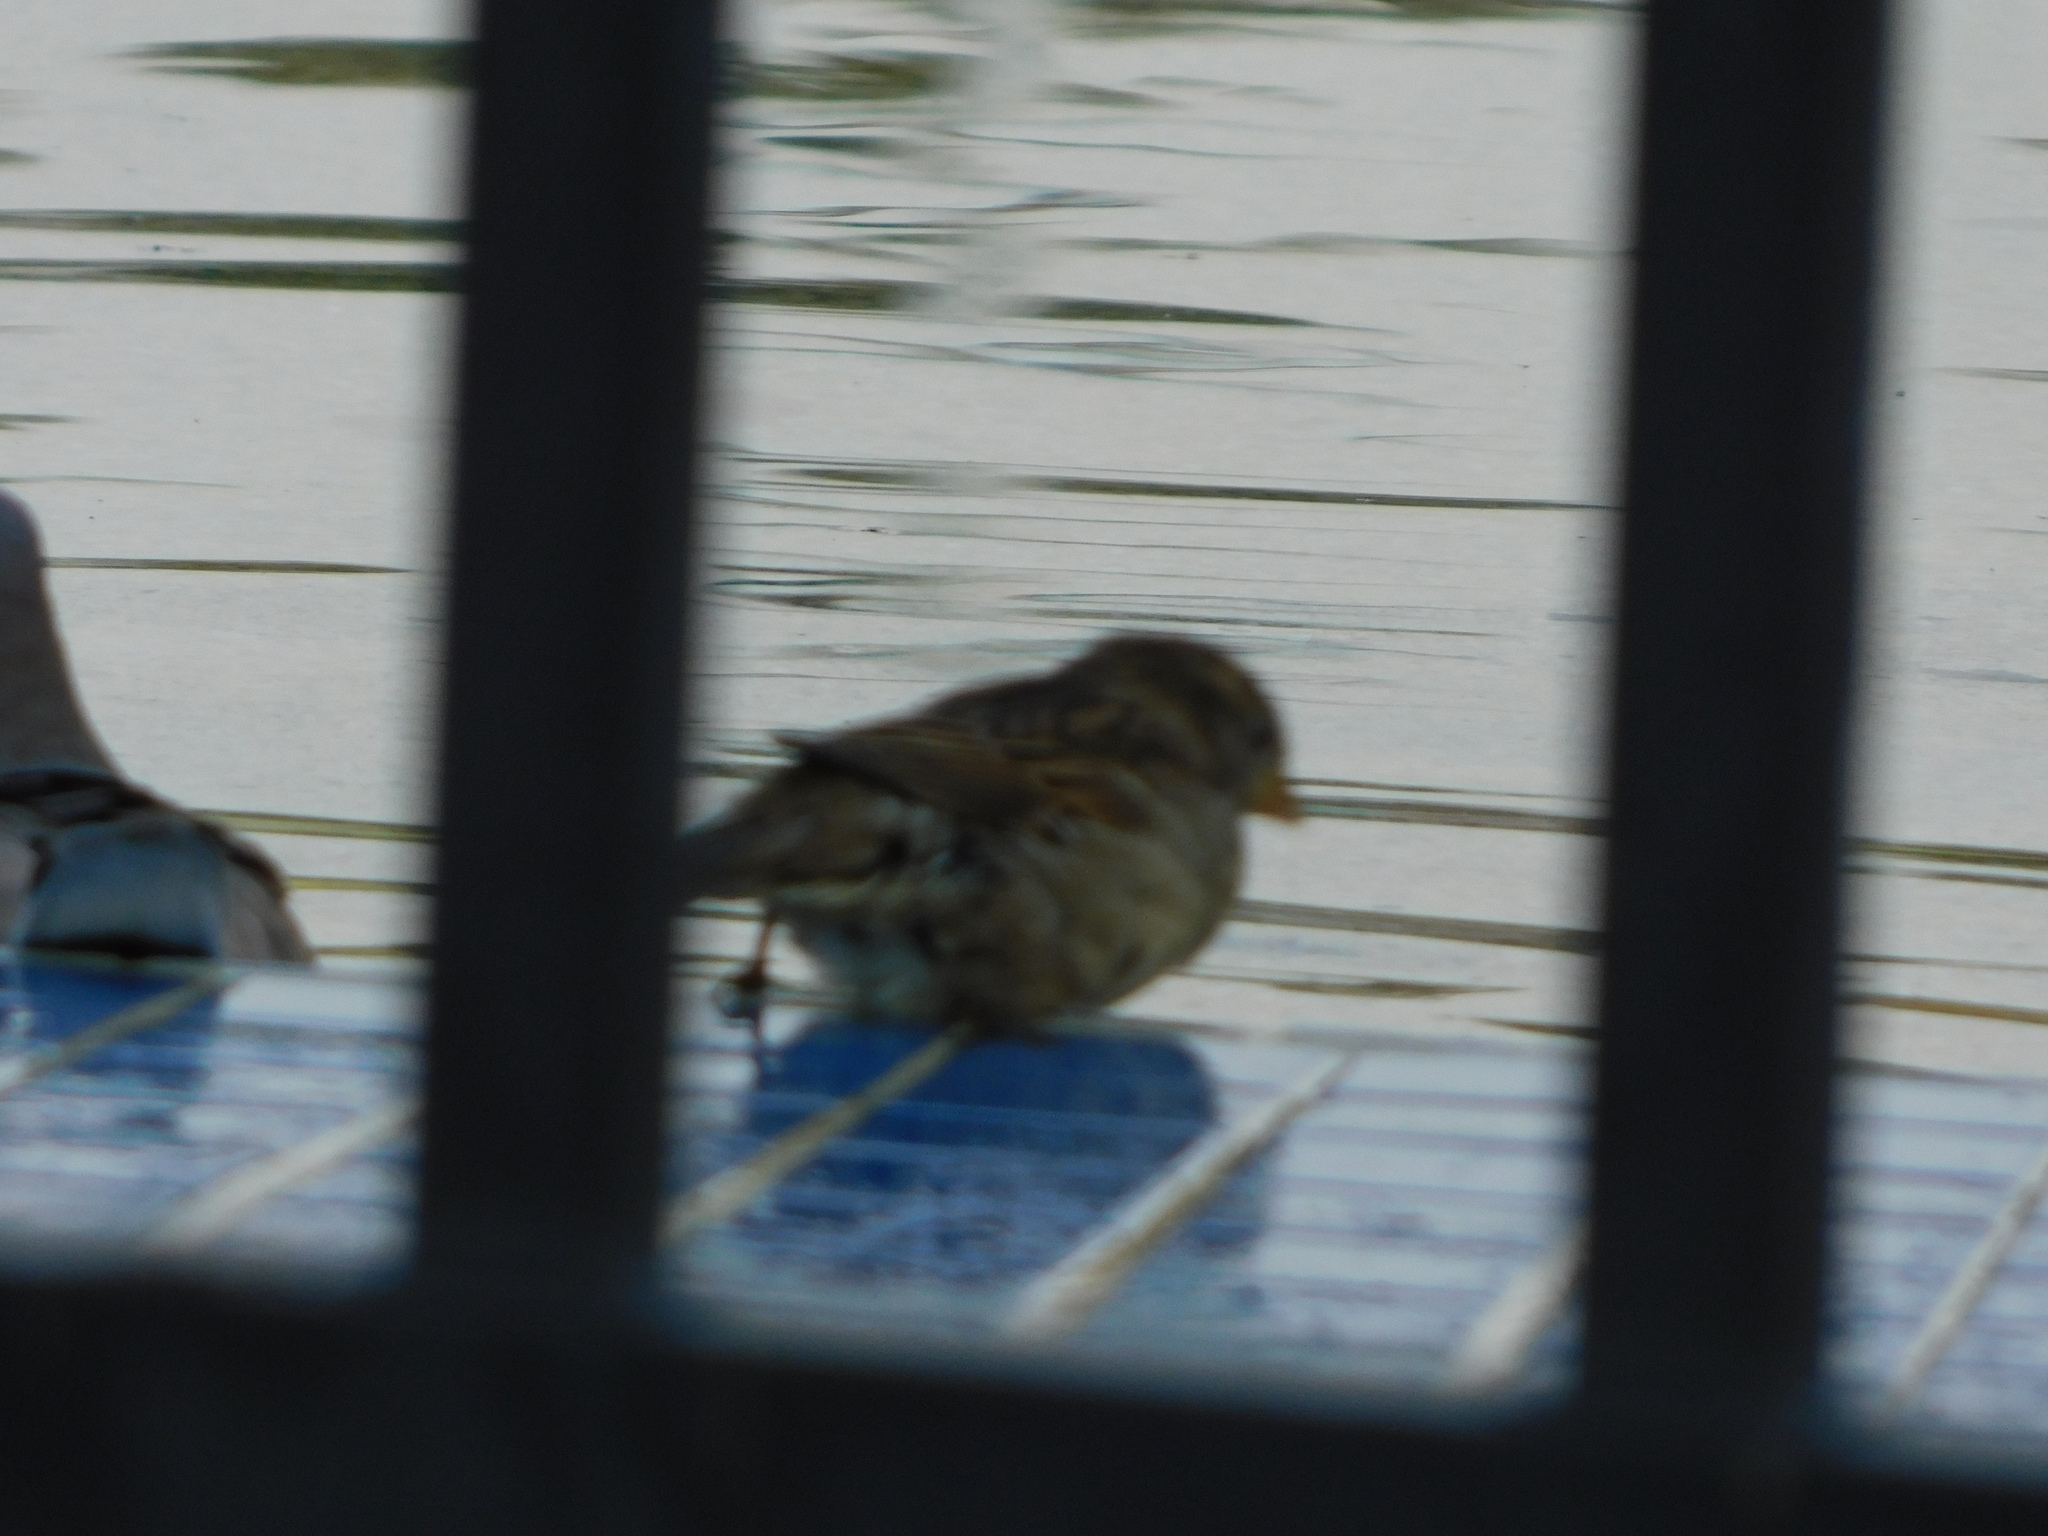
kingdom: Animalia
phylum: Chordata
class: Aves
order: Passeriformes
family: Passeridae
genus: Passer
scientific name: Passer domesticus
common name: House sparrow
